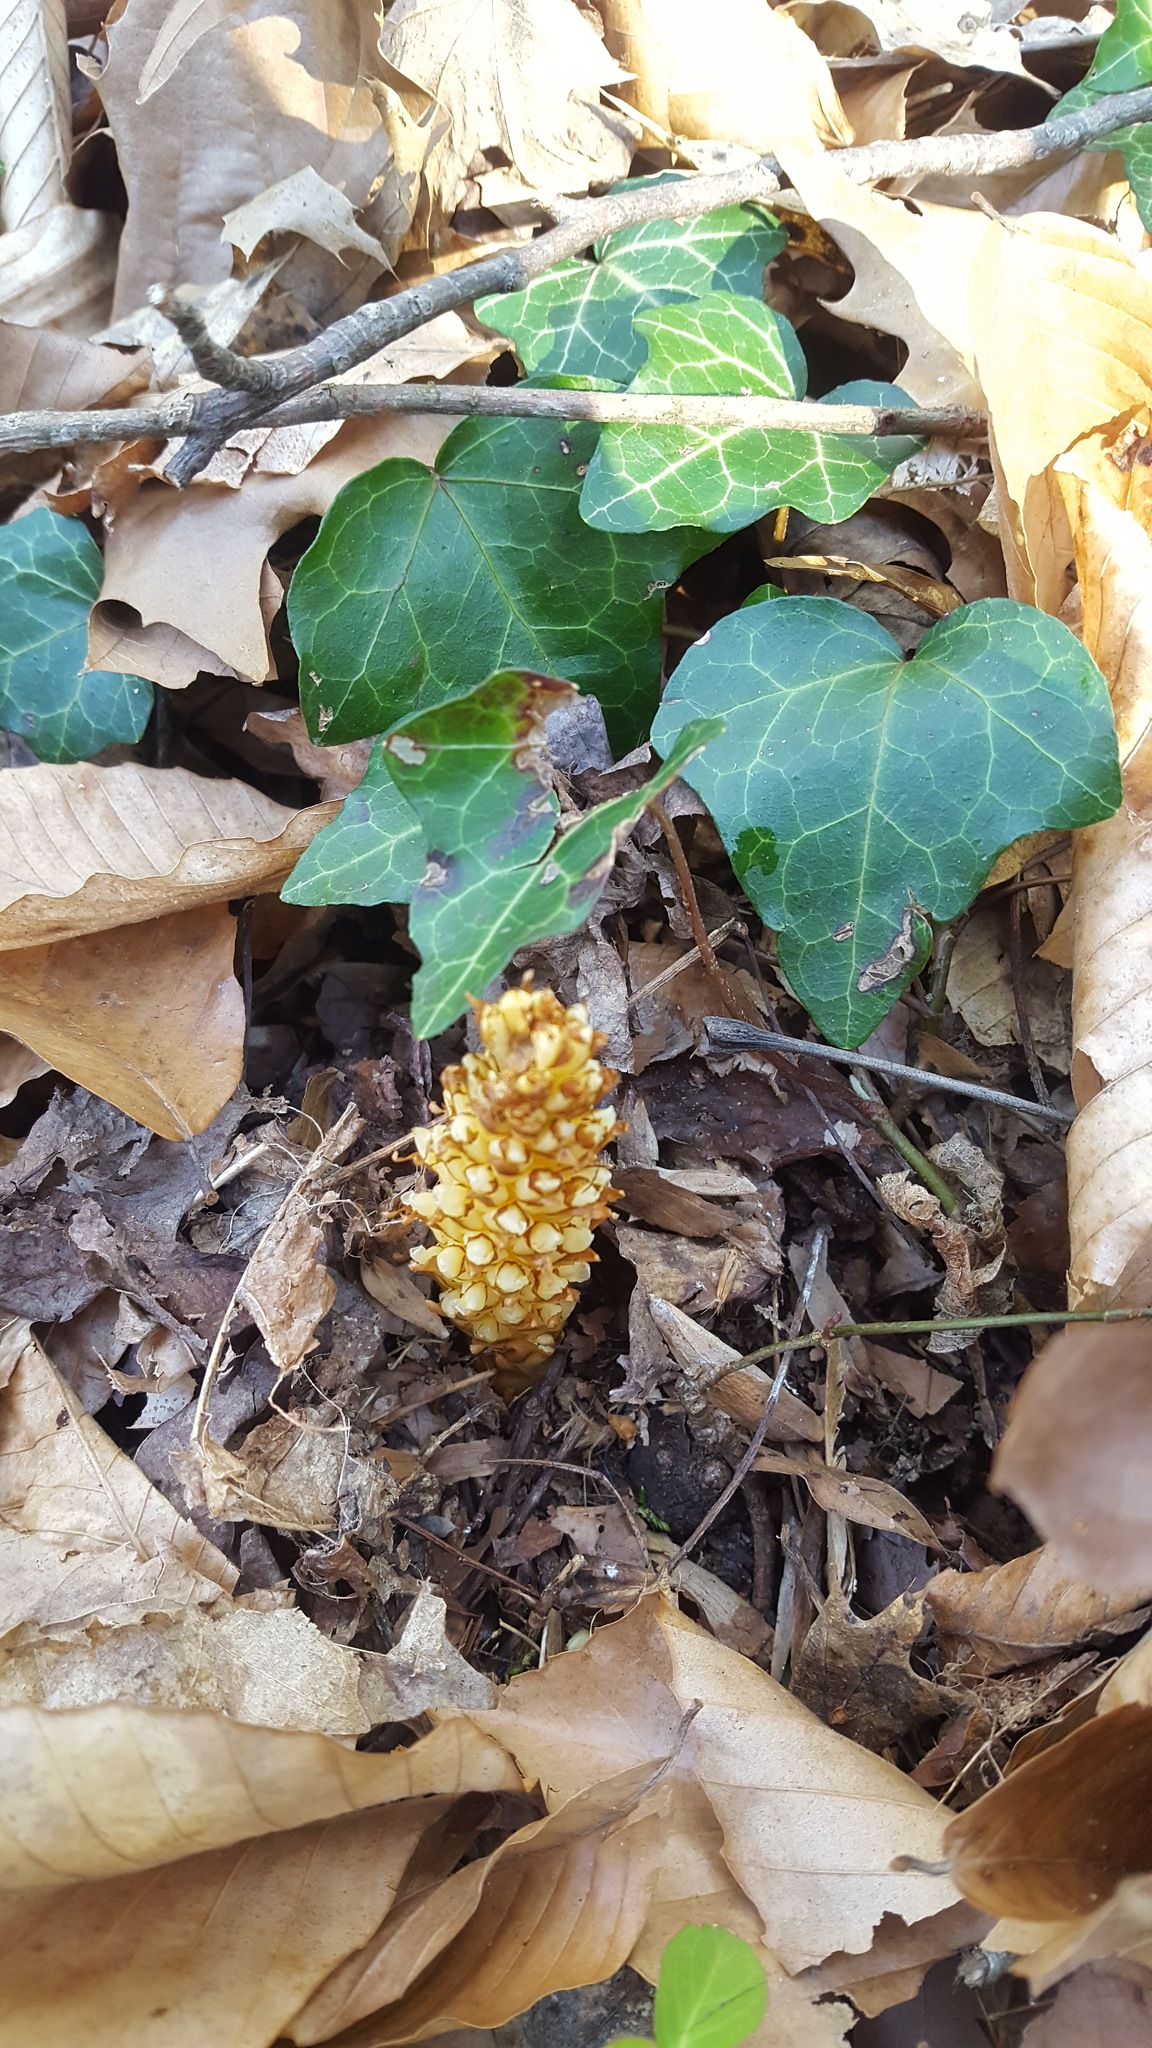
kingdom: Plantae
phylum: Tracheophyta
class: Magnoliopsida
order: Lamiales
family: Orobanchaceae
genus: Conopholis
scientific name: Conopholis americana
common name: American cancer-root
